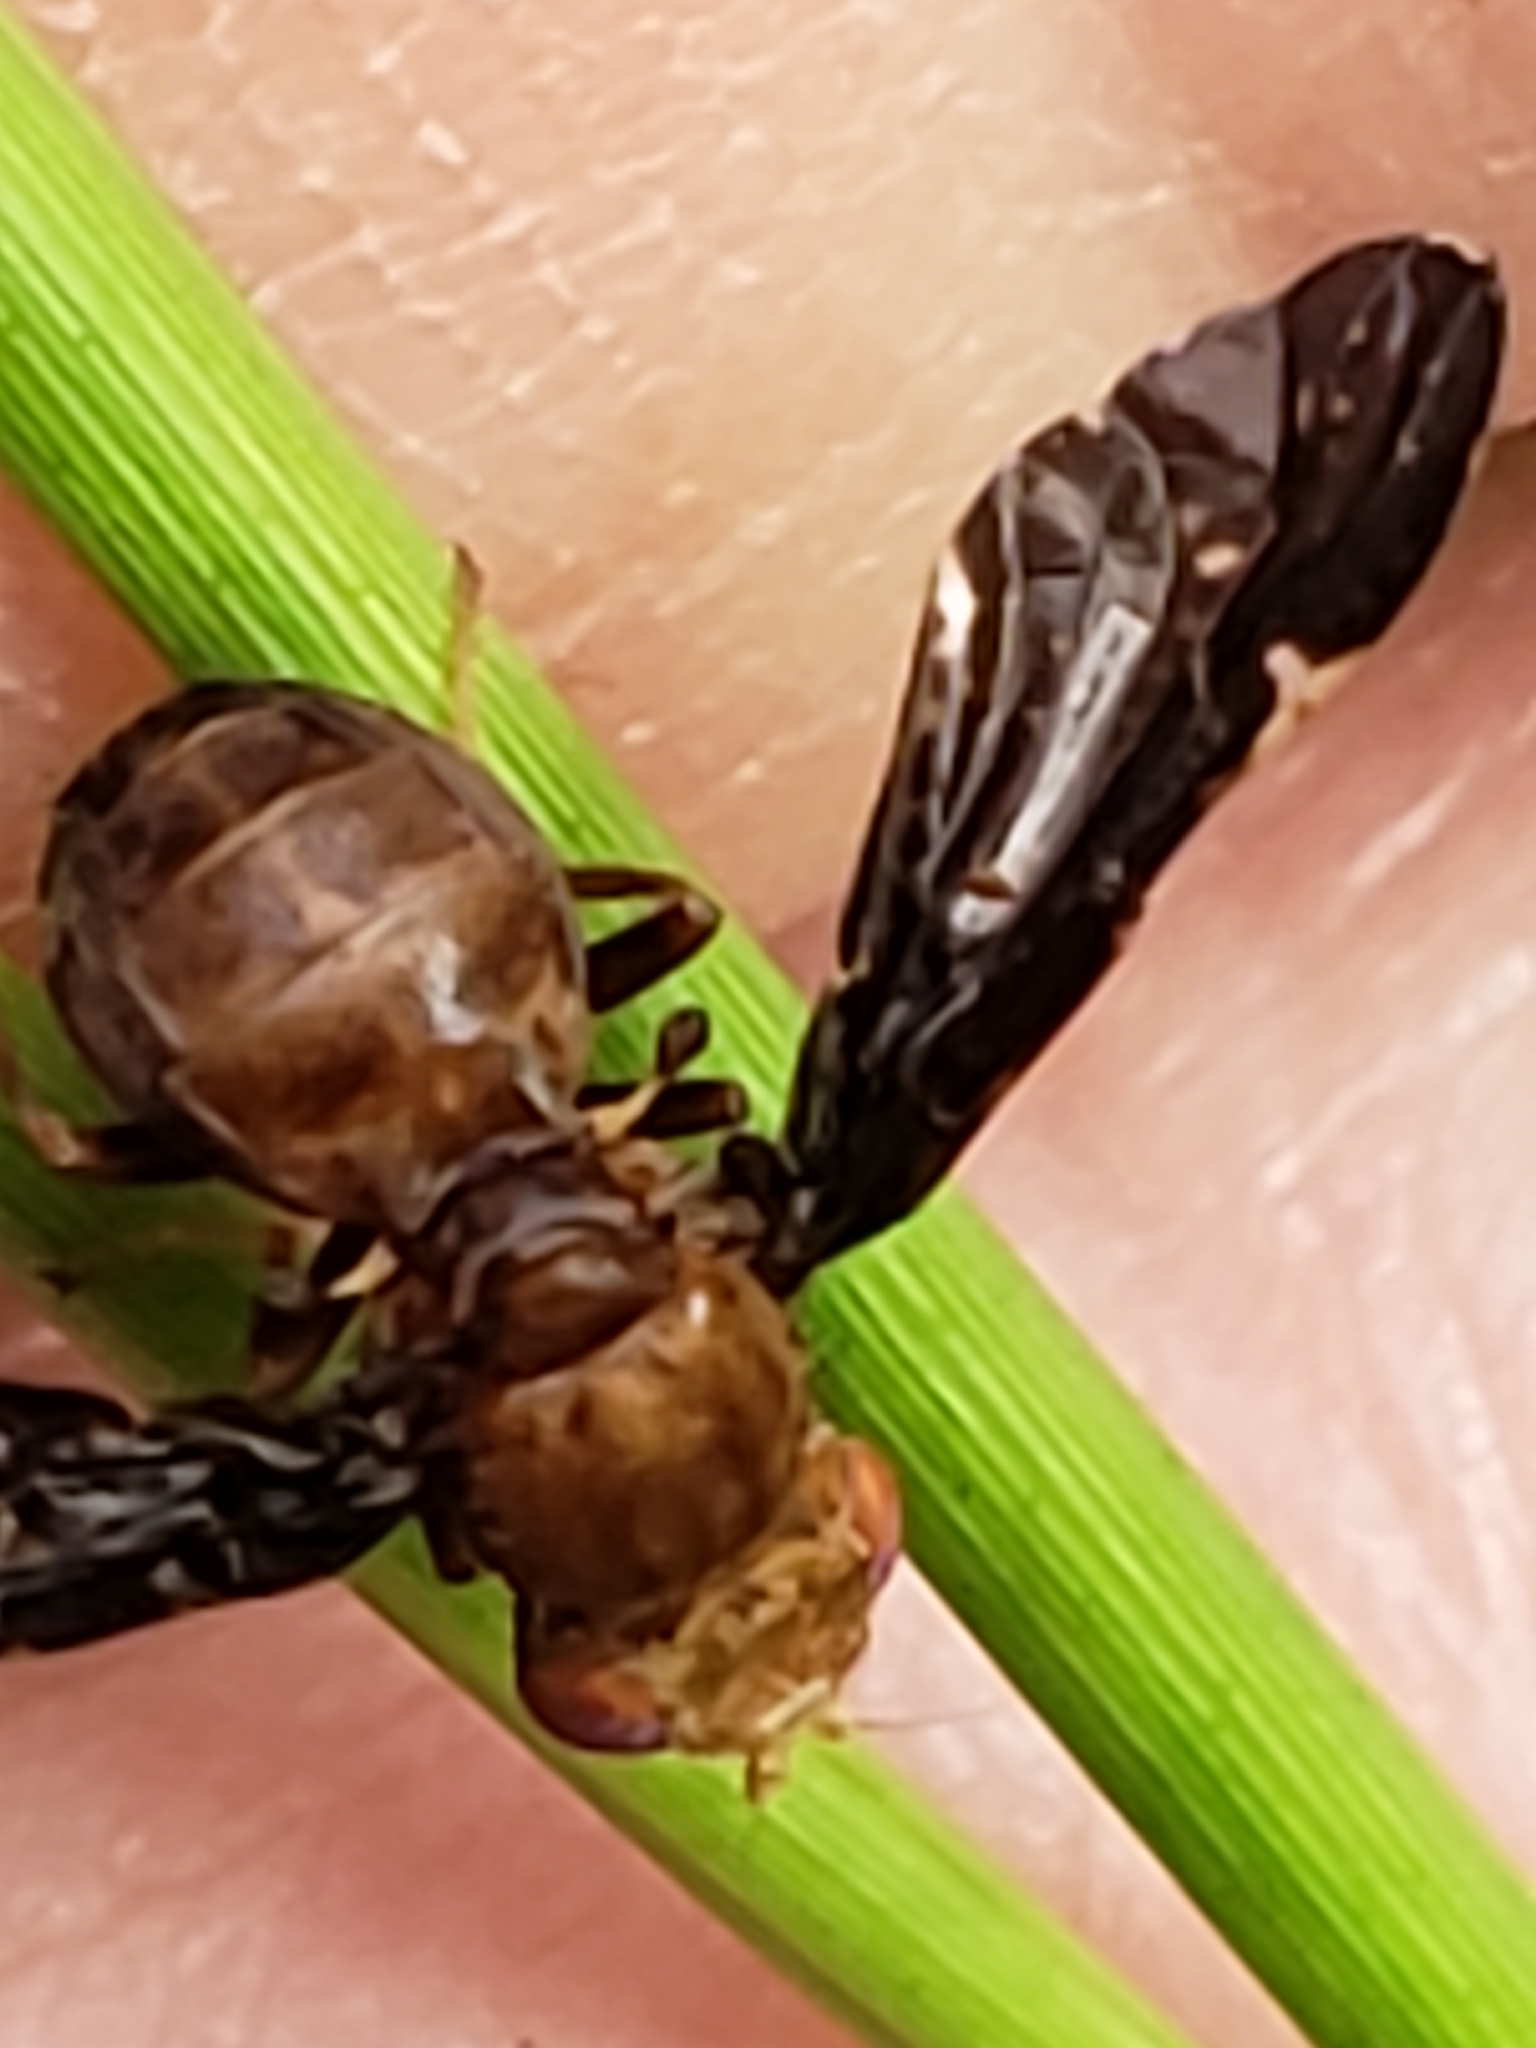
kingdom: Animalia
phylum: Arthropoda
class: Insecta
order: Diptera
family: Tephritidae
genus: Eurosta
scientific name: Eurosta comma
